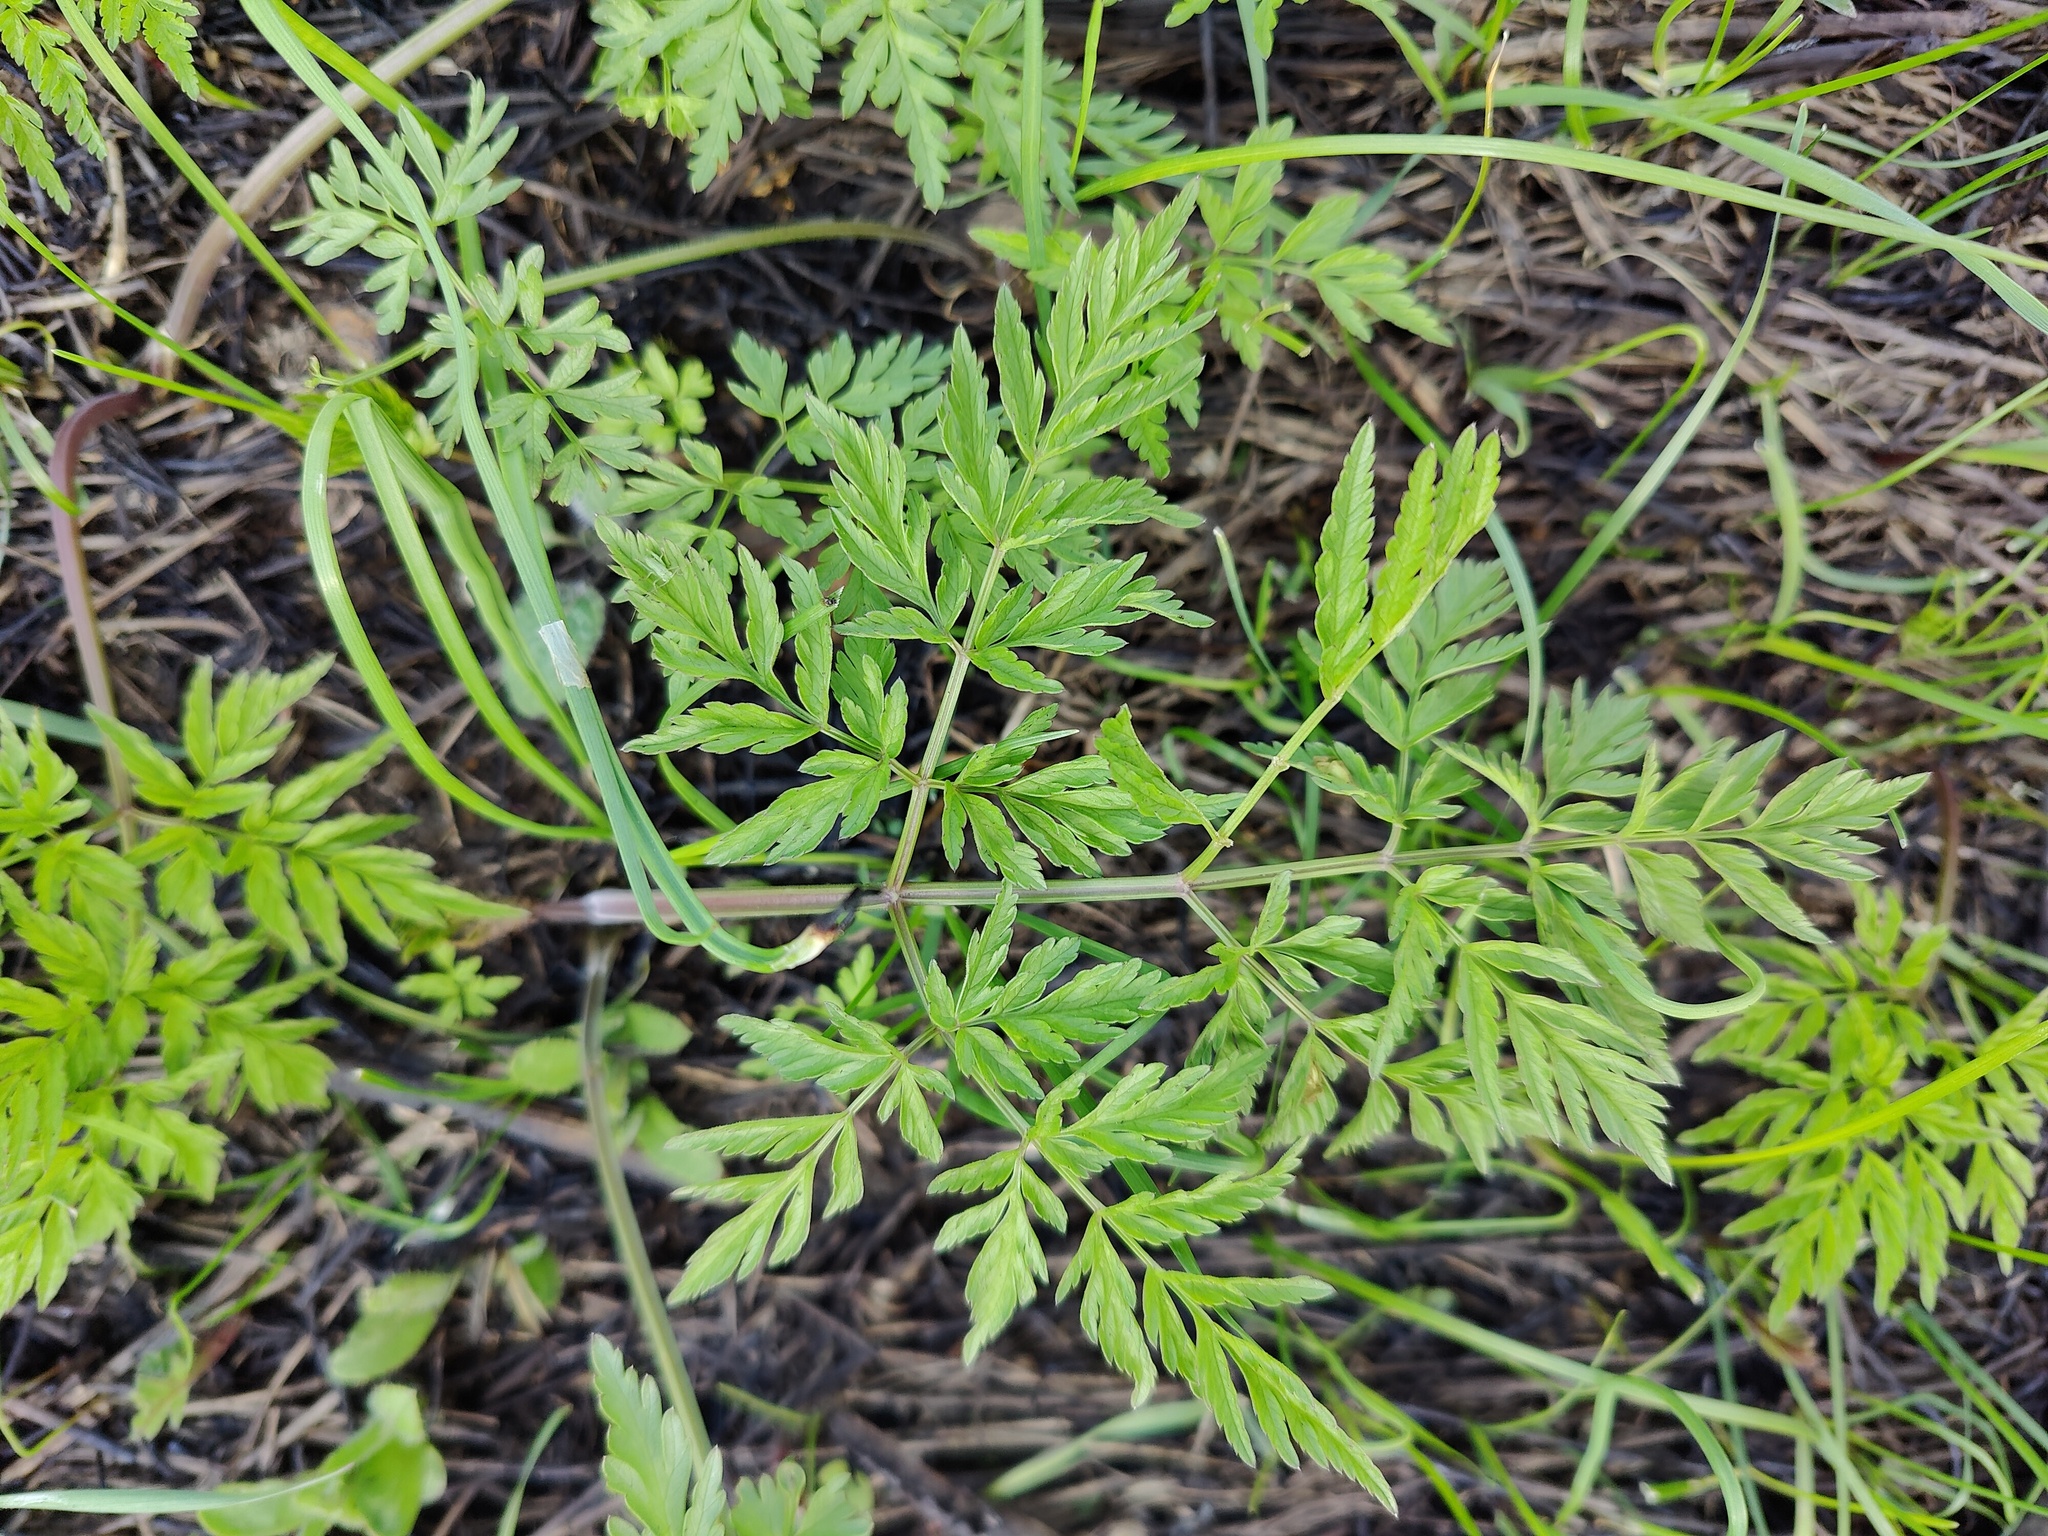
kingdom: Plantae
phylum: Tracheophyta
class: Magnoliopsida
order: Apiales
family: Apiaceae
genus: Anthriscus
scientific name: Anthriscus sylvestris
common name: Cow parsley
